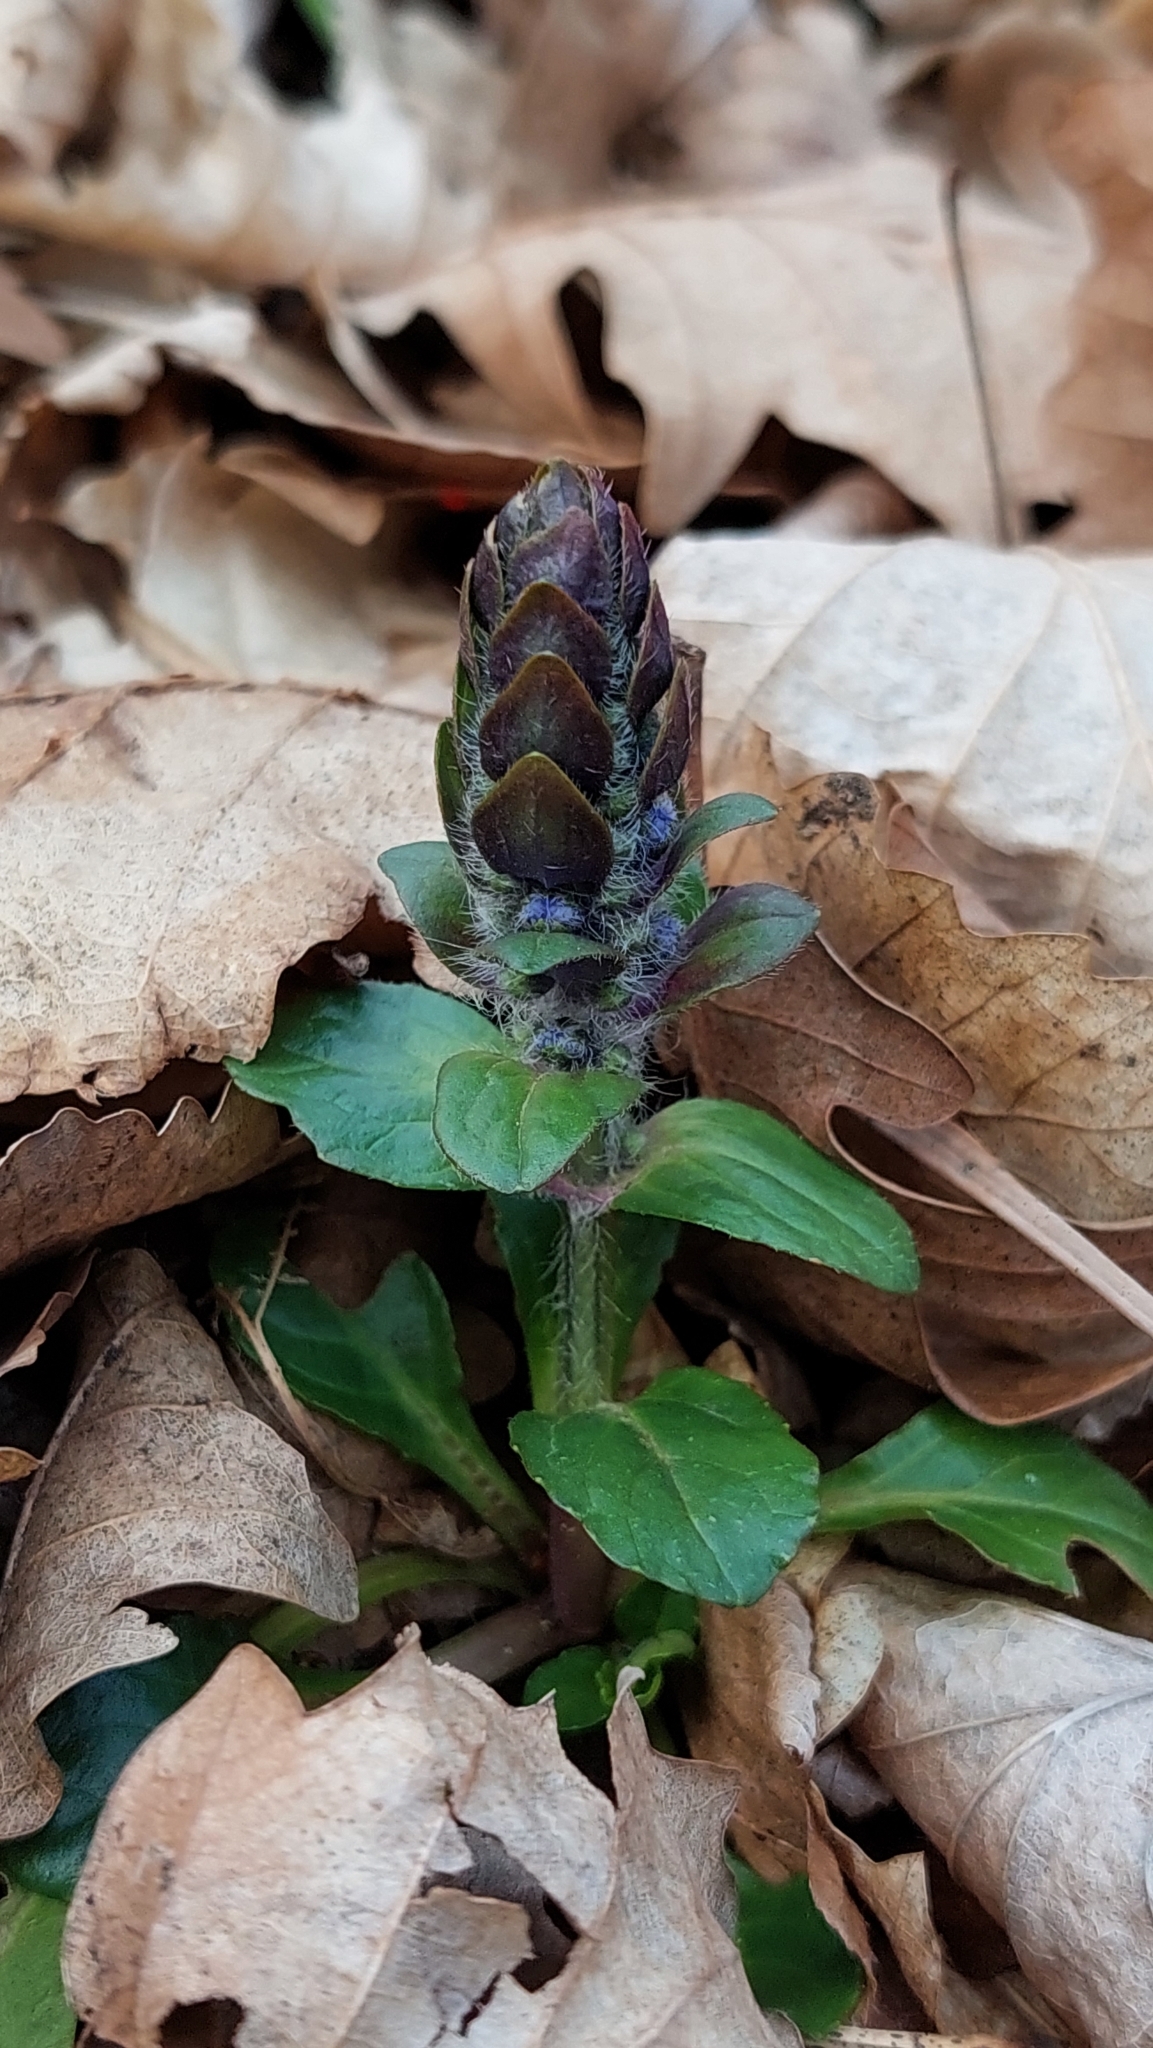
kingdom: Plantae
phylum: Tracheophyta
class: Magnoliopsida
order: Lamiales
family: Lamiaceae
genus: Ajuga
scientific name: Ajuga reptans
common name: Bugle
